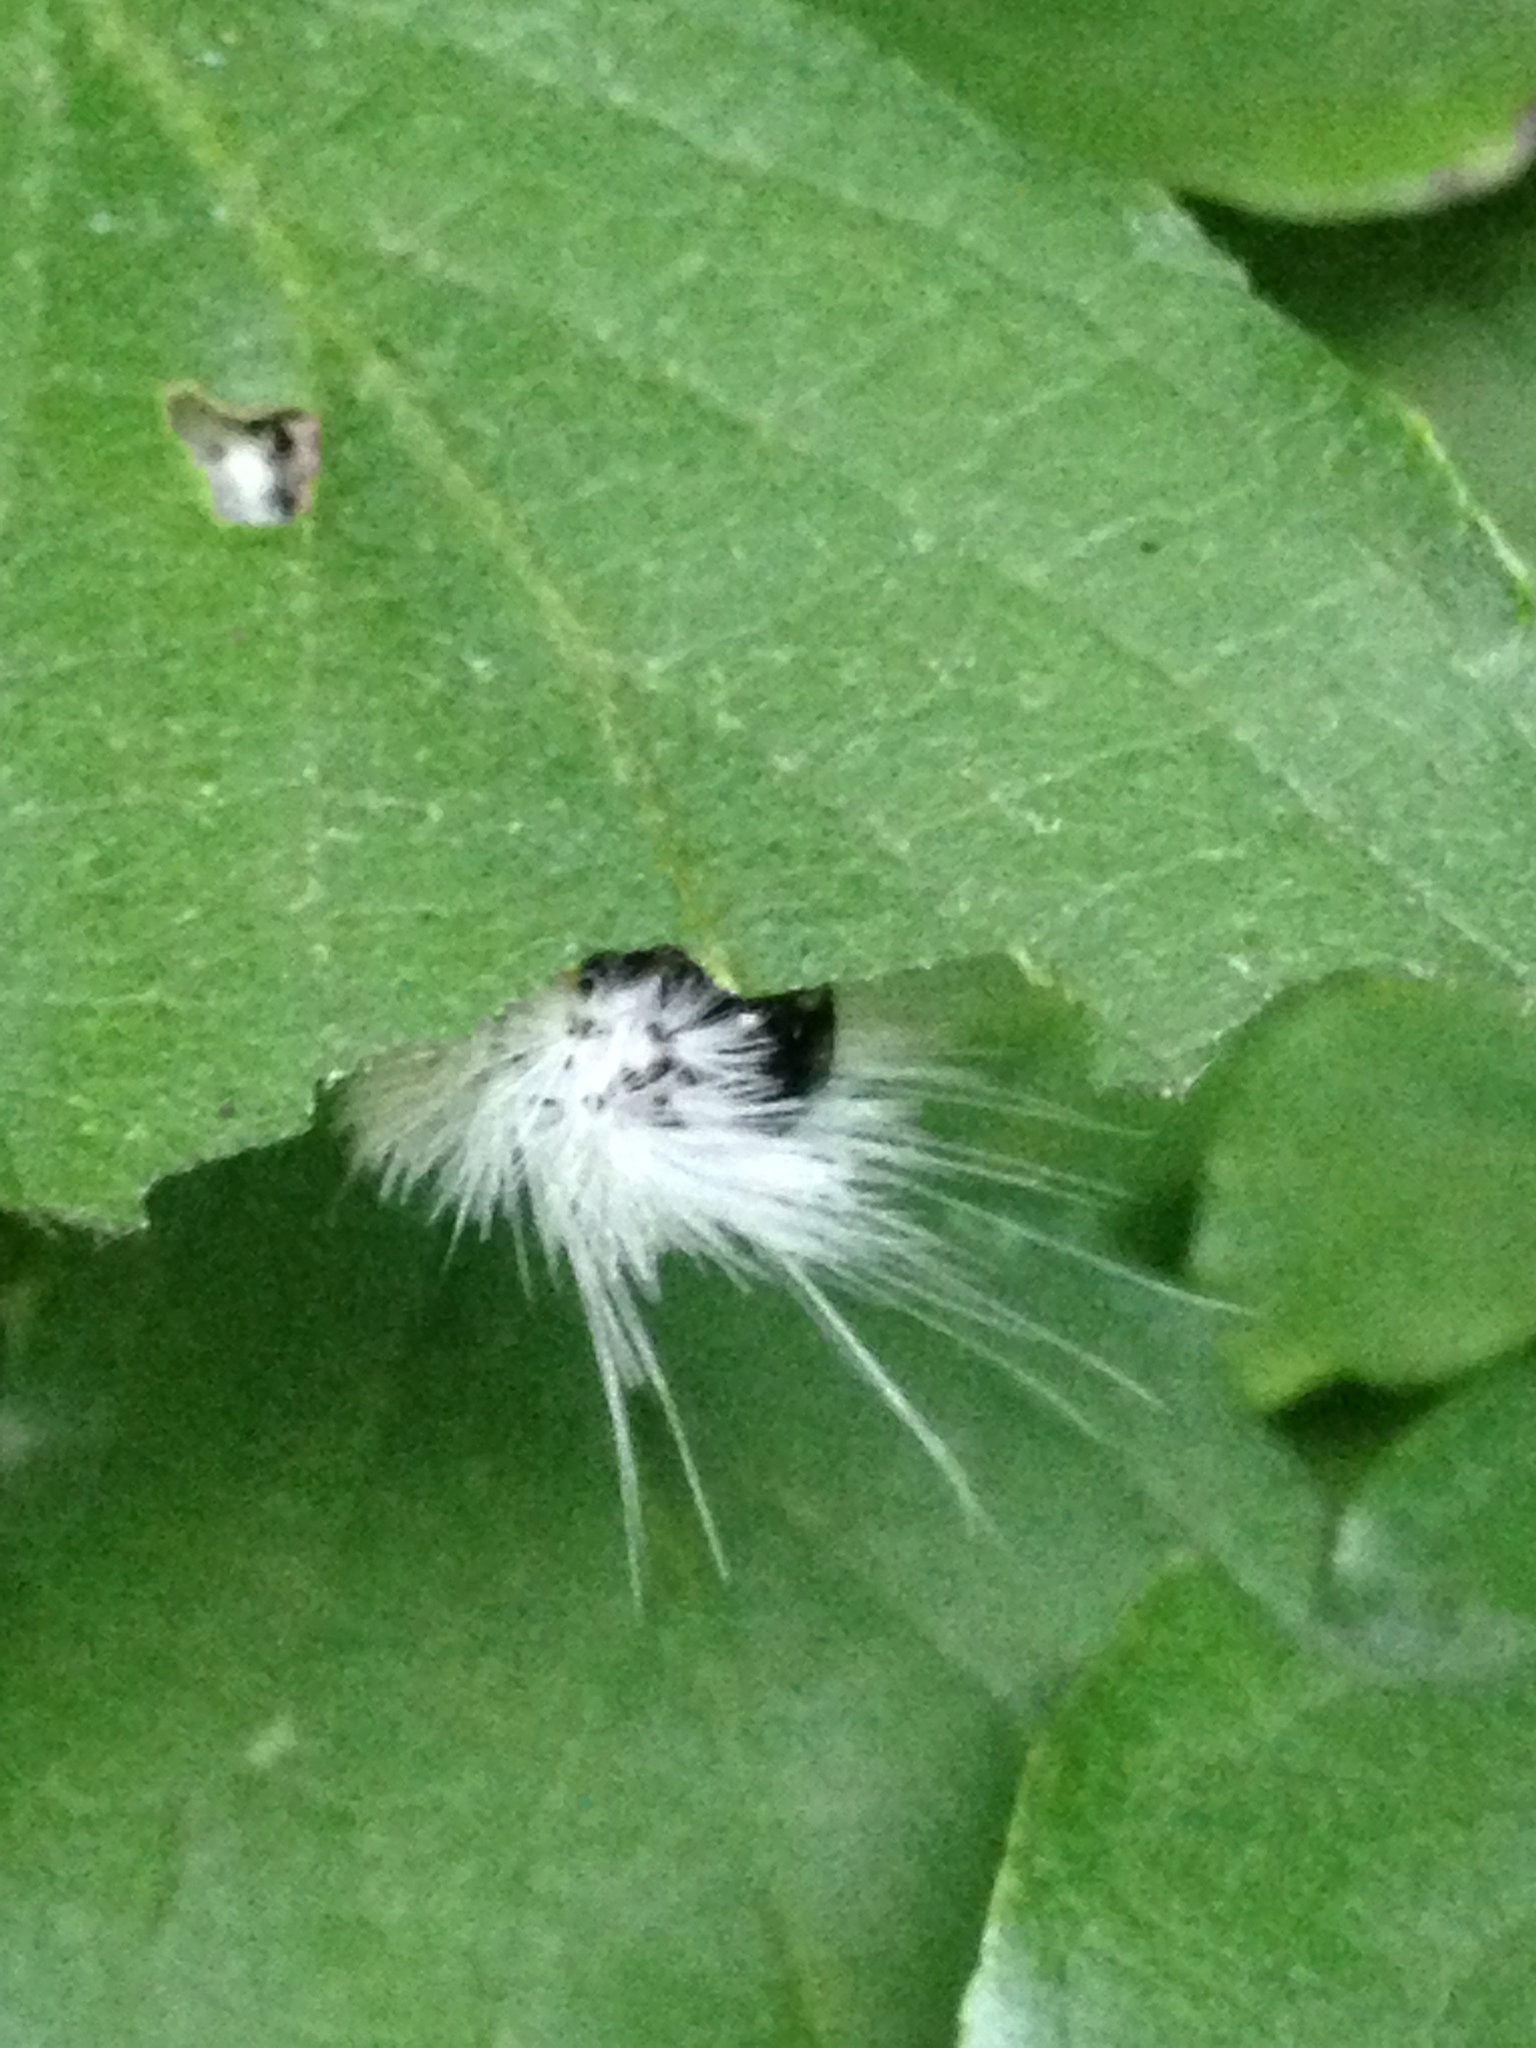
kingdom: Animalia
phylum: Arthropoda
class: Insecta
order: Lepidoptera
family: Erebidae
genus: Lophocampa
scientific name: Lophocampa caryae
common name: Hickory tussock moth
